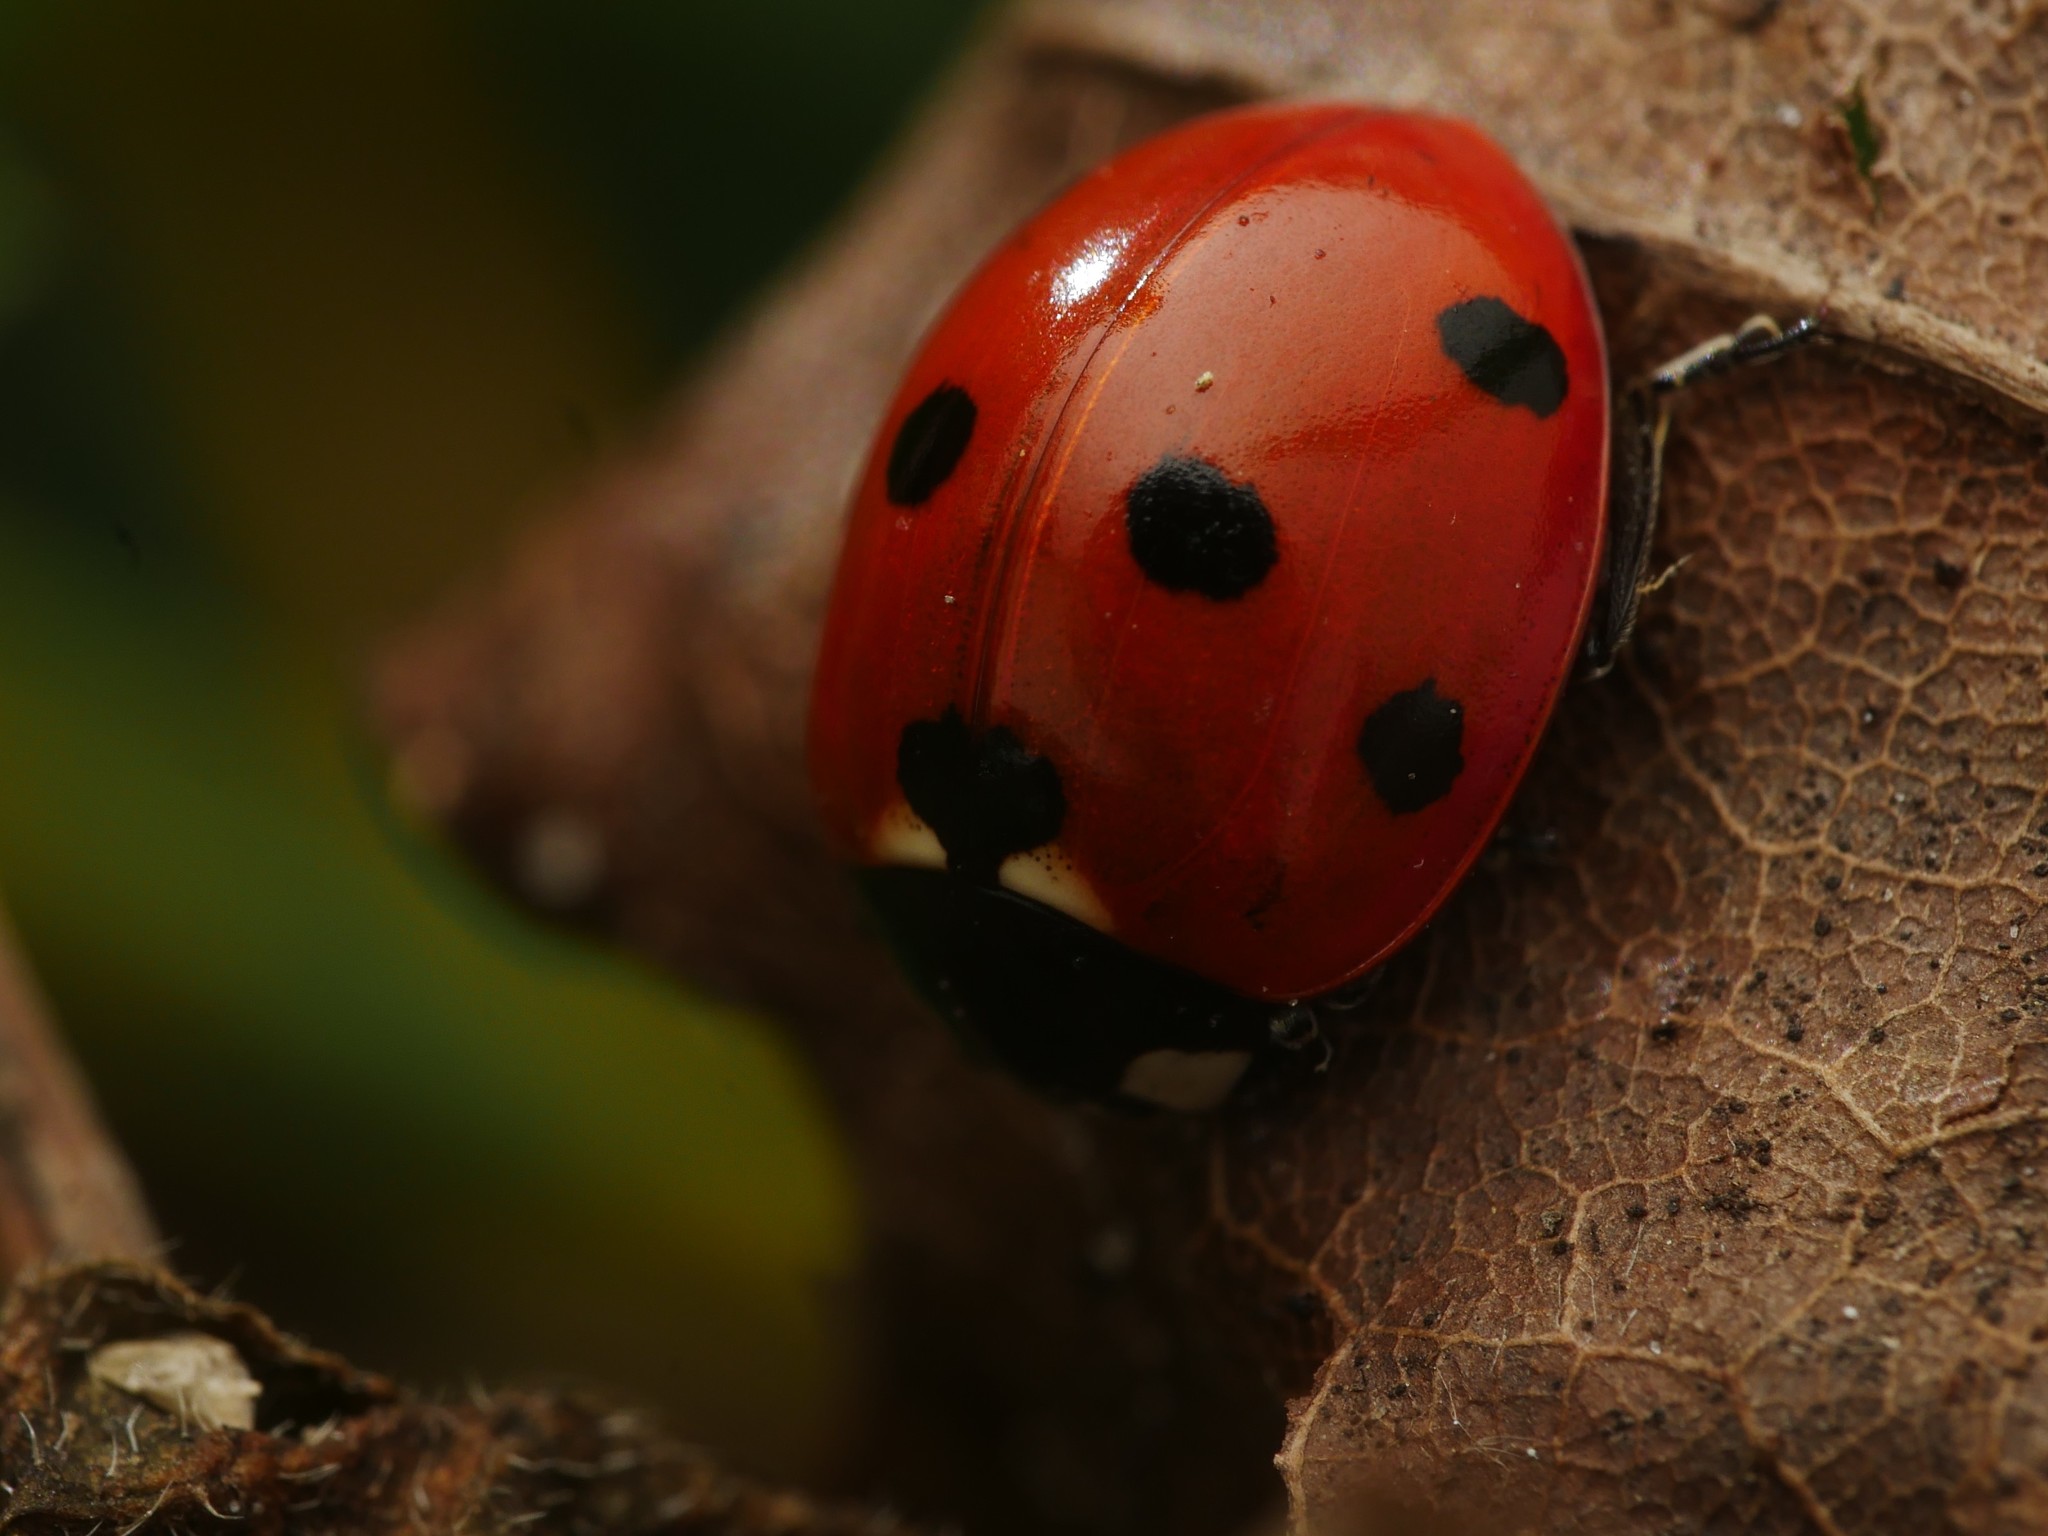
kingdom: Animalia
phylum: Arthropoda
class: Insecta
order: Coleoptera
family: Coccinellidae
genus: Coccinella
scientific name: Coccinella septempunctata
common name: Sevenspotted lady beetle
